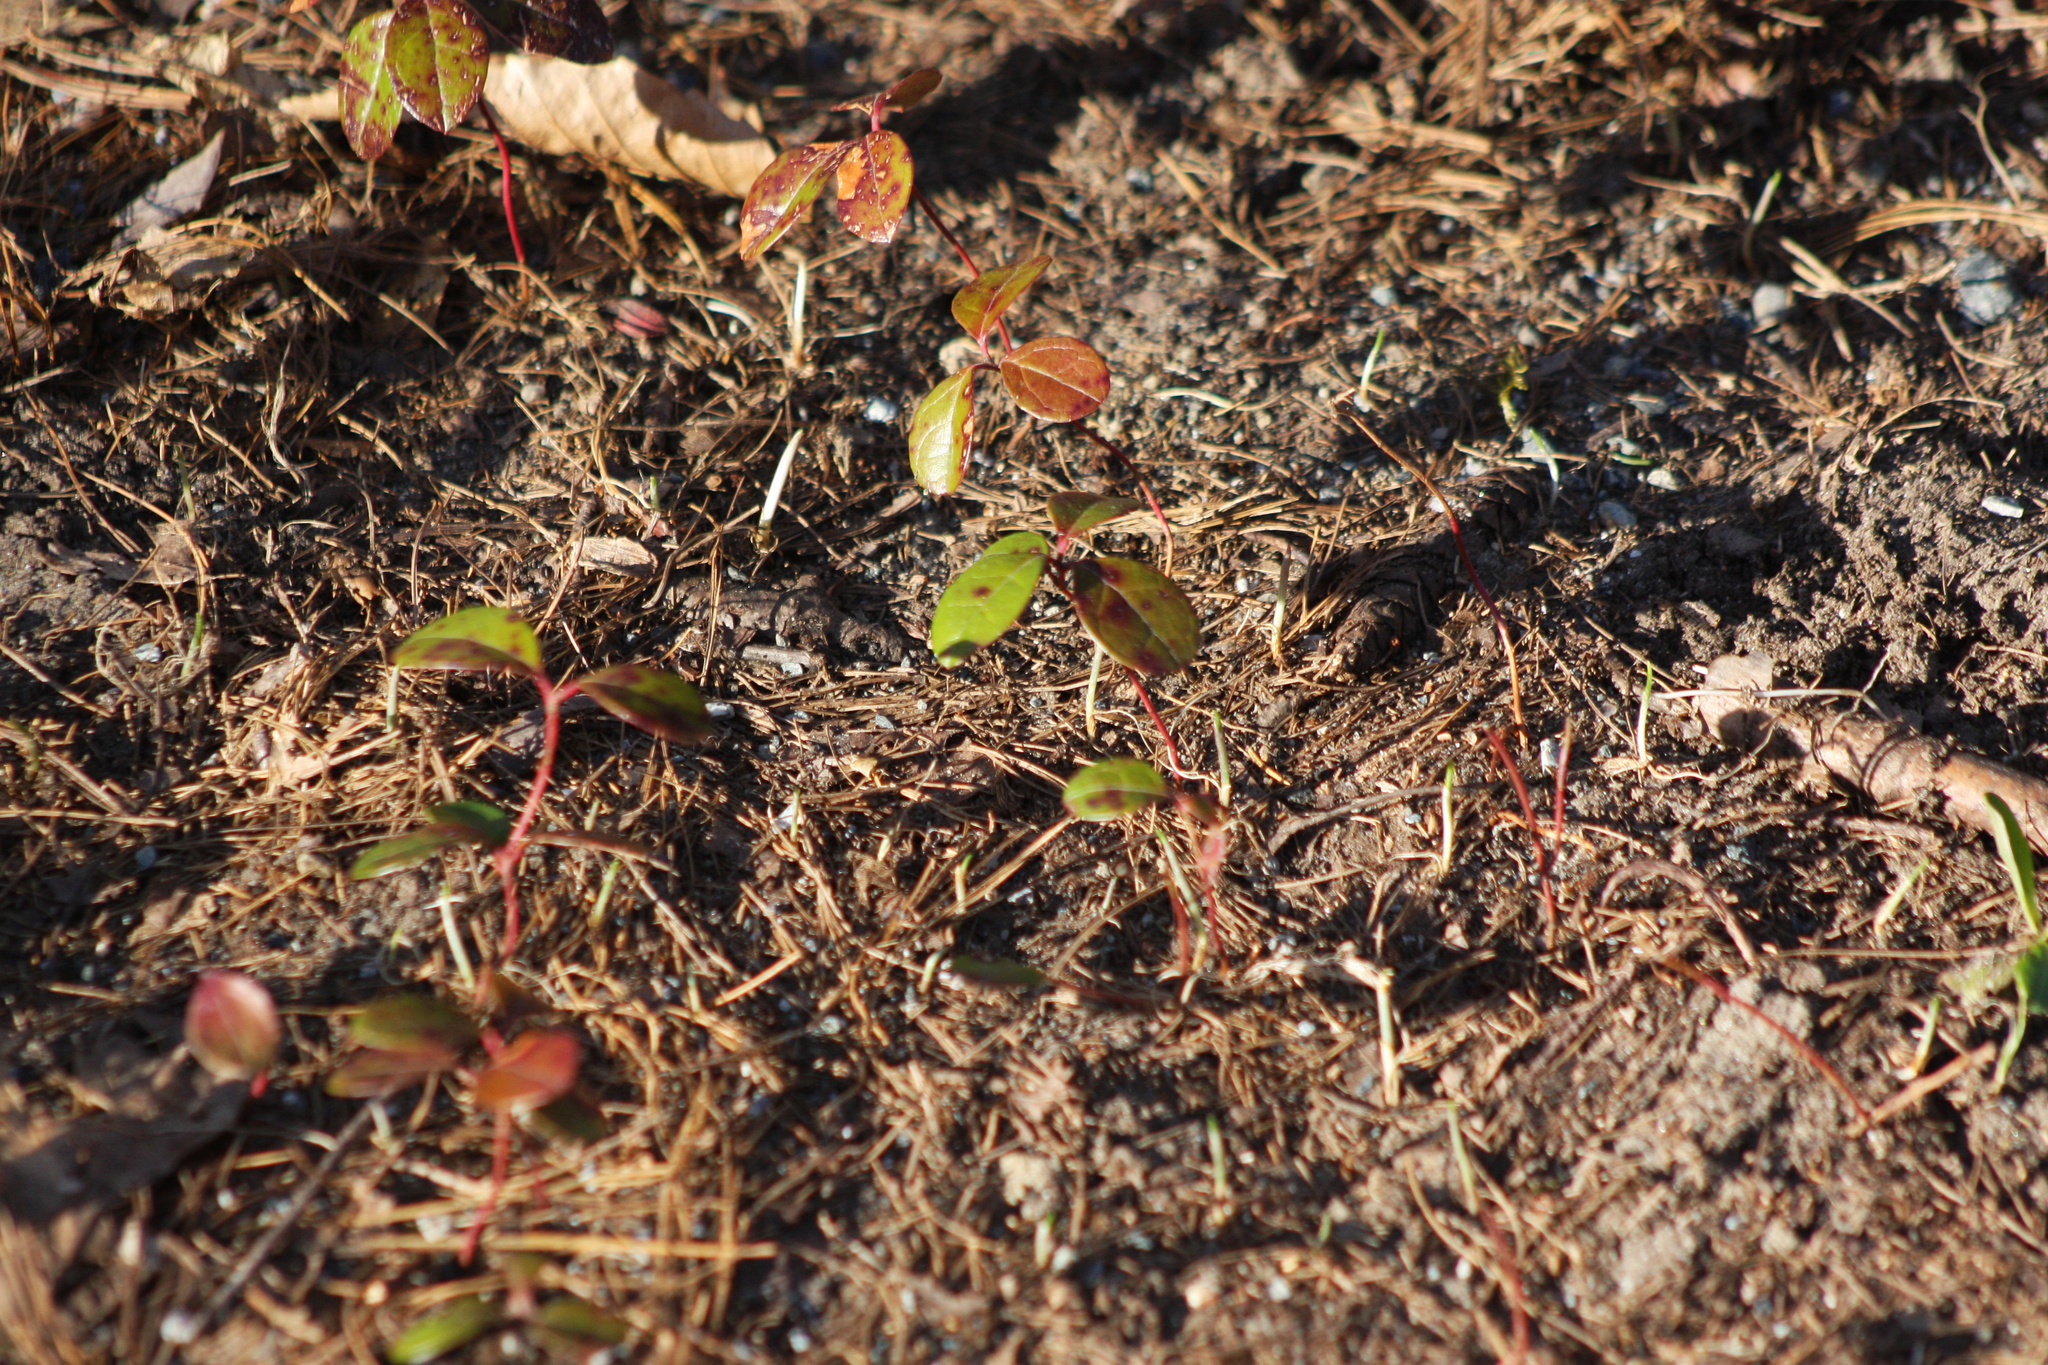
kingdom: Plantae
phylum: Tracheophyta
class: Magnoliopsida
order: Ericales
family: Ericaceae
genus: Gaultheria
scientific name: Gaultheria procumbens
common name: Checkerberry
